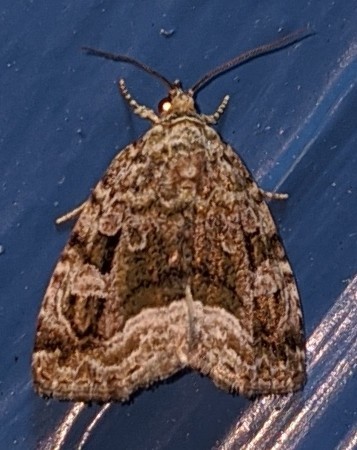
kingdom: Animalia
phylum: Arthropoda
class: Insecta
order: Lepidoptera
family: Noctuidae
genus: Protodeltote
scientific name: Protodeltote muscosula
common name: Large mossy glyph
